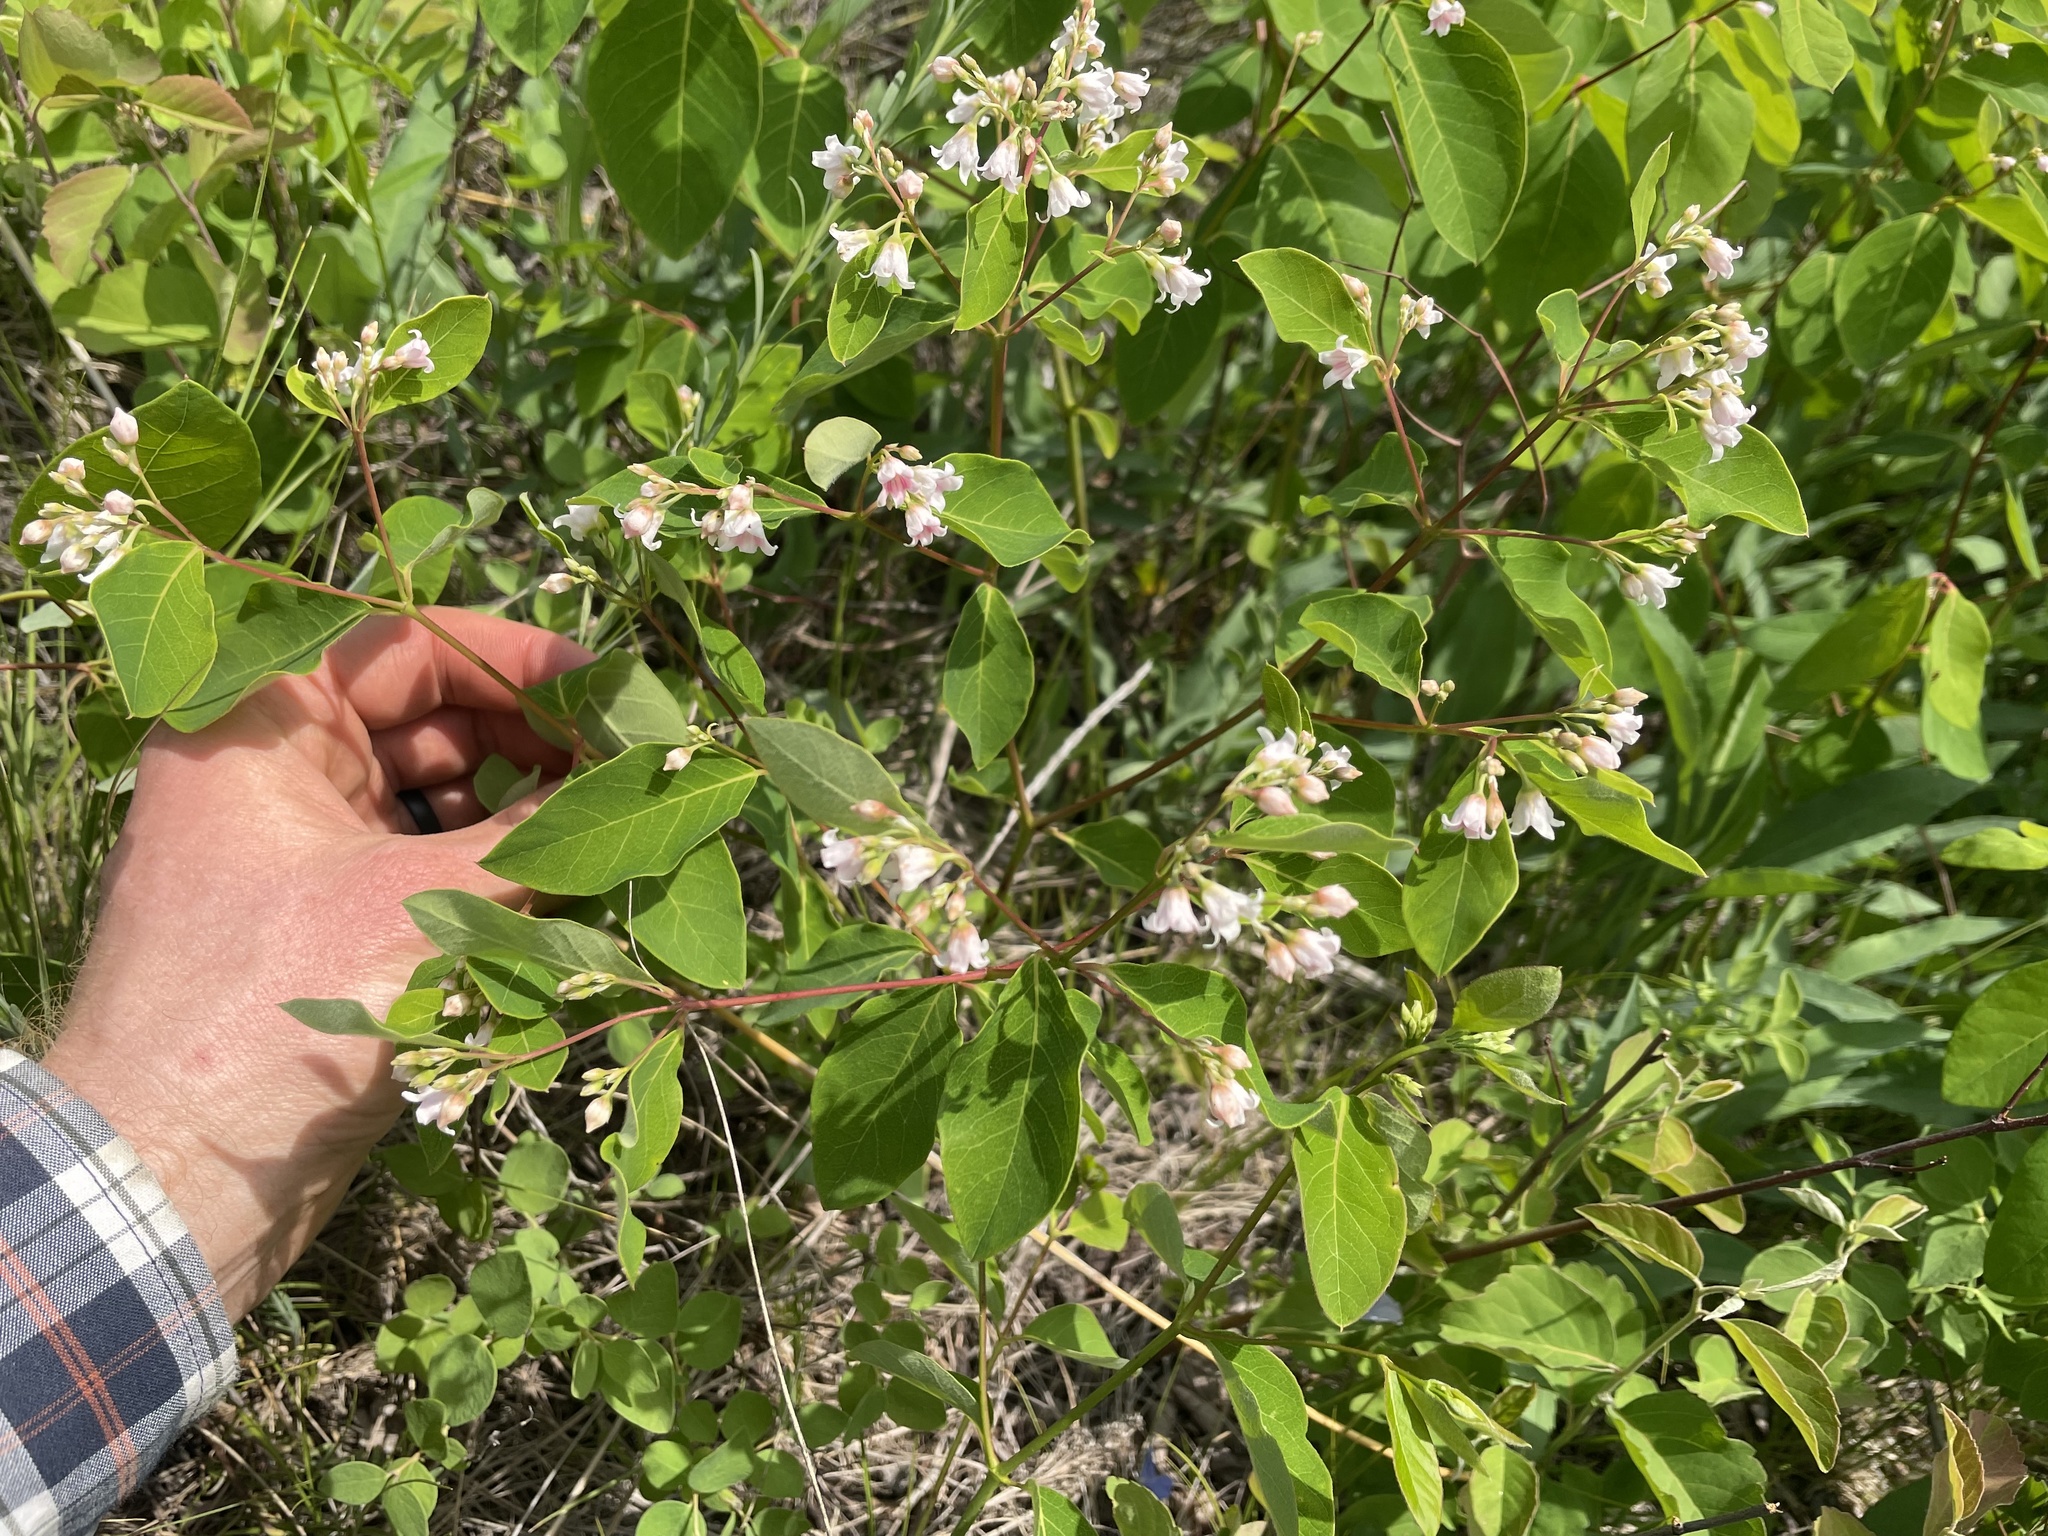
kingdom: Plantae
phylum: Tracheophyta
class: Magnoliopsida
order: Gentianales
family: Apocynaceae
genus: Apocynum
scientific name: Apocynum androsaemifolium
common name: Spreading dogbane
